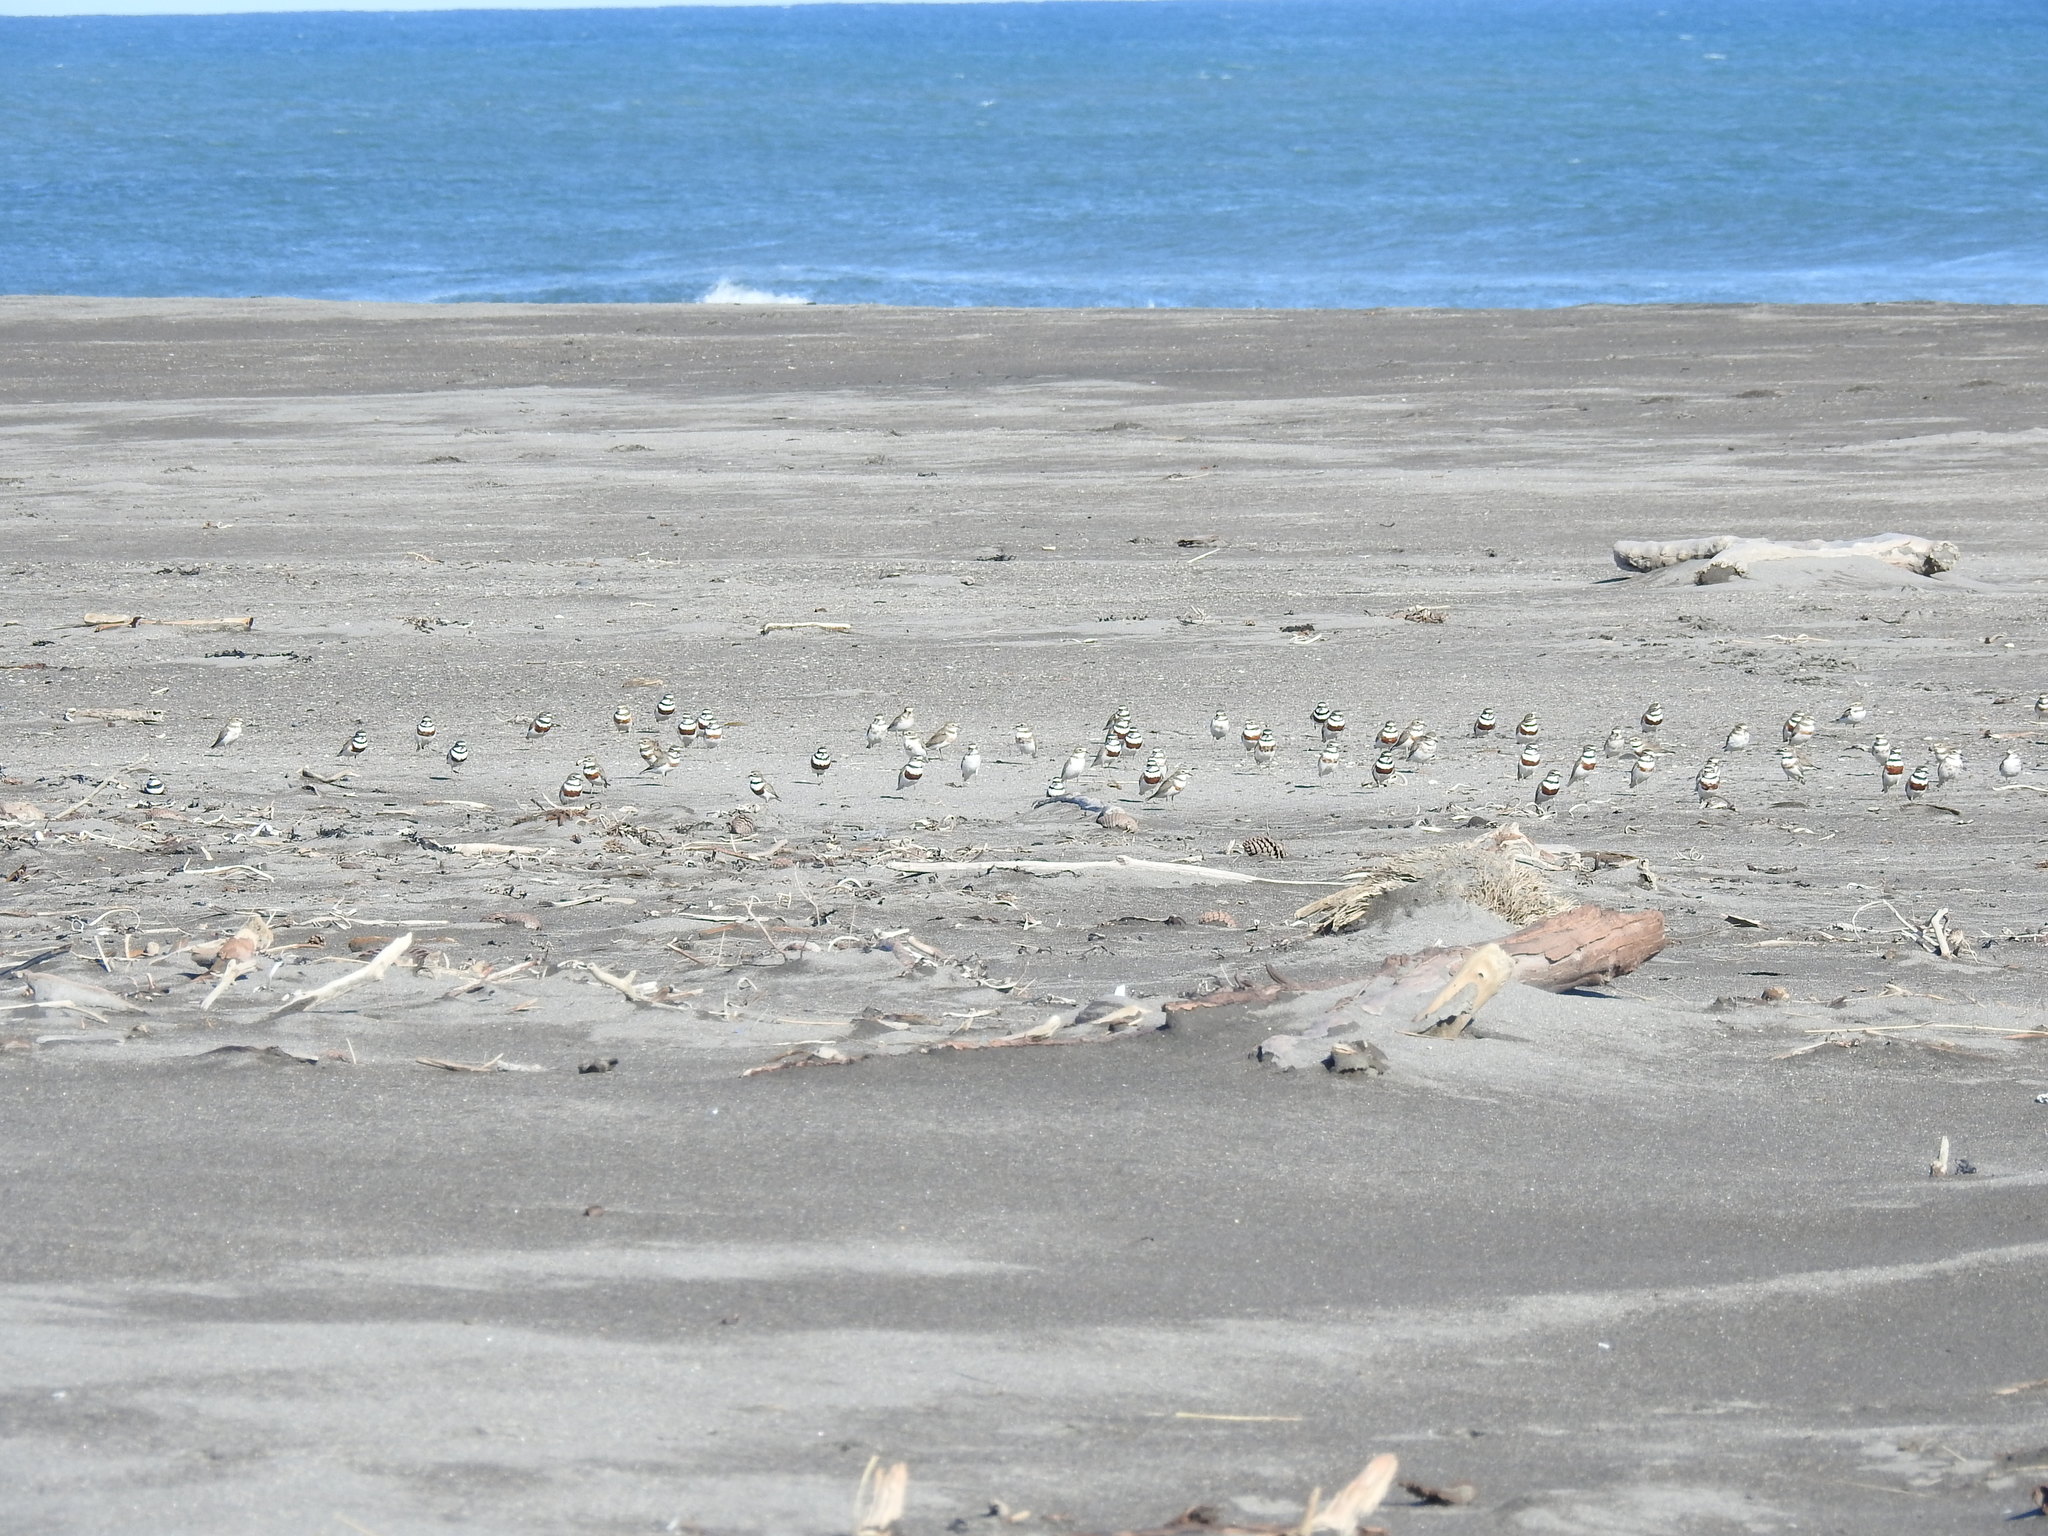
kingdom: Animalia
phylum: Chordata
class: Aves
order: Charadriiformes
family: Charadriidae
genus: Anarhynchus
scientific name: Anarhynchus
